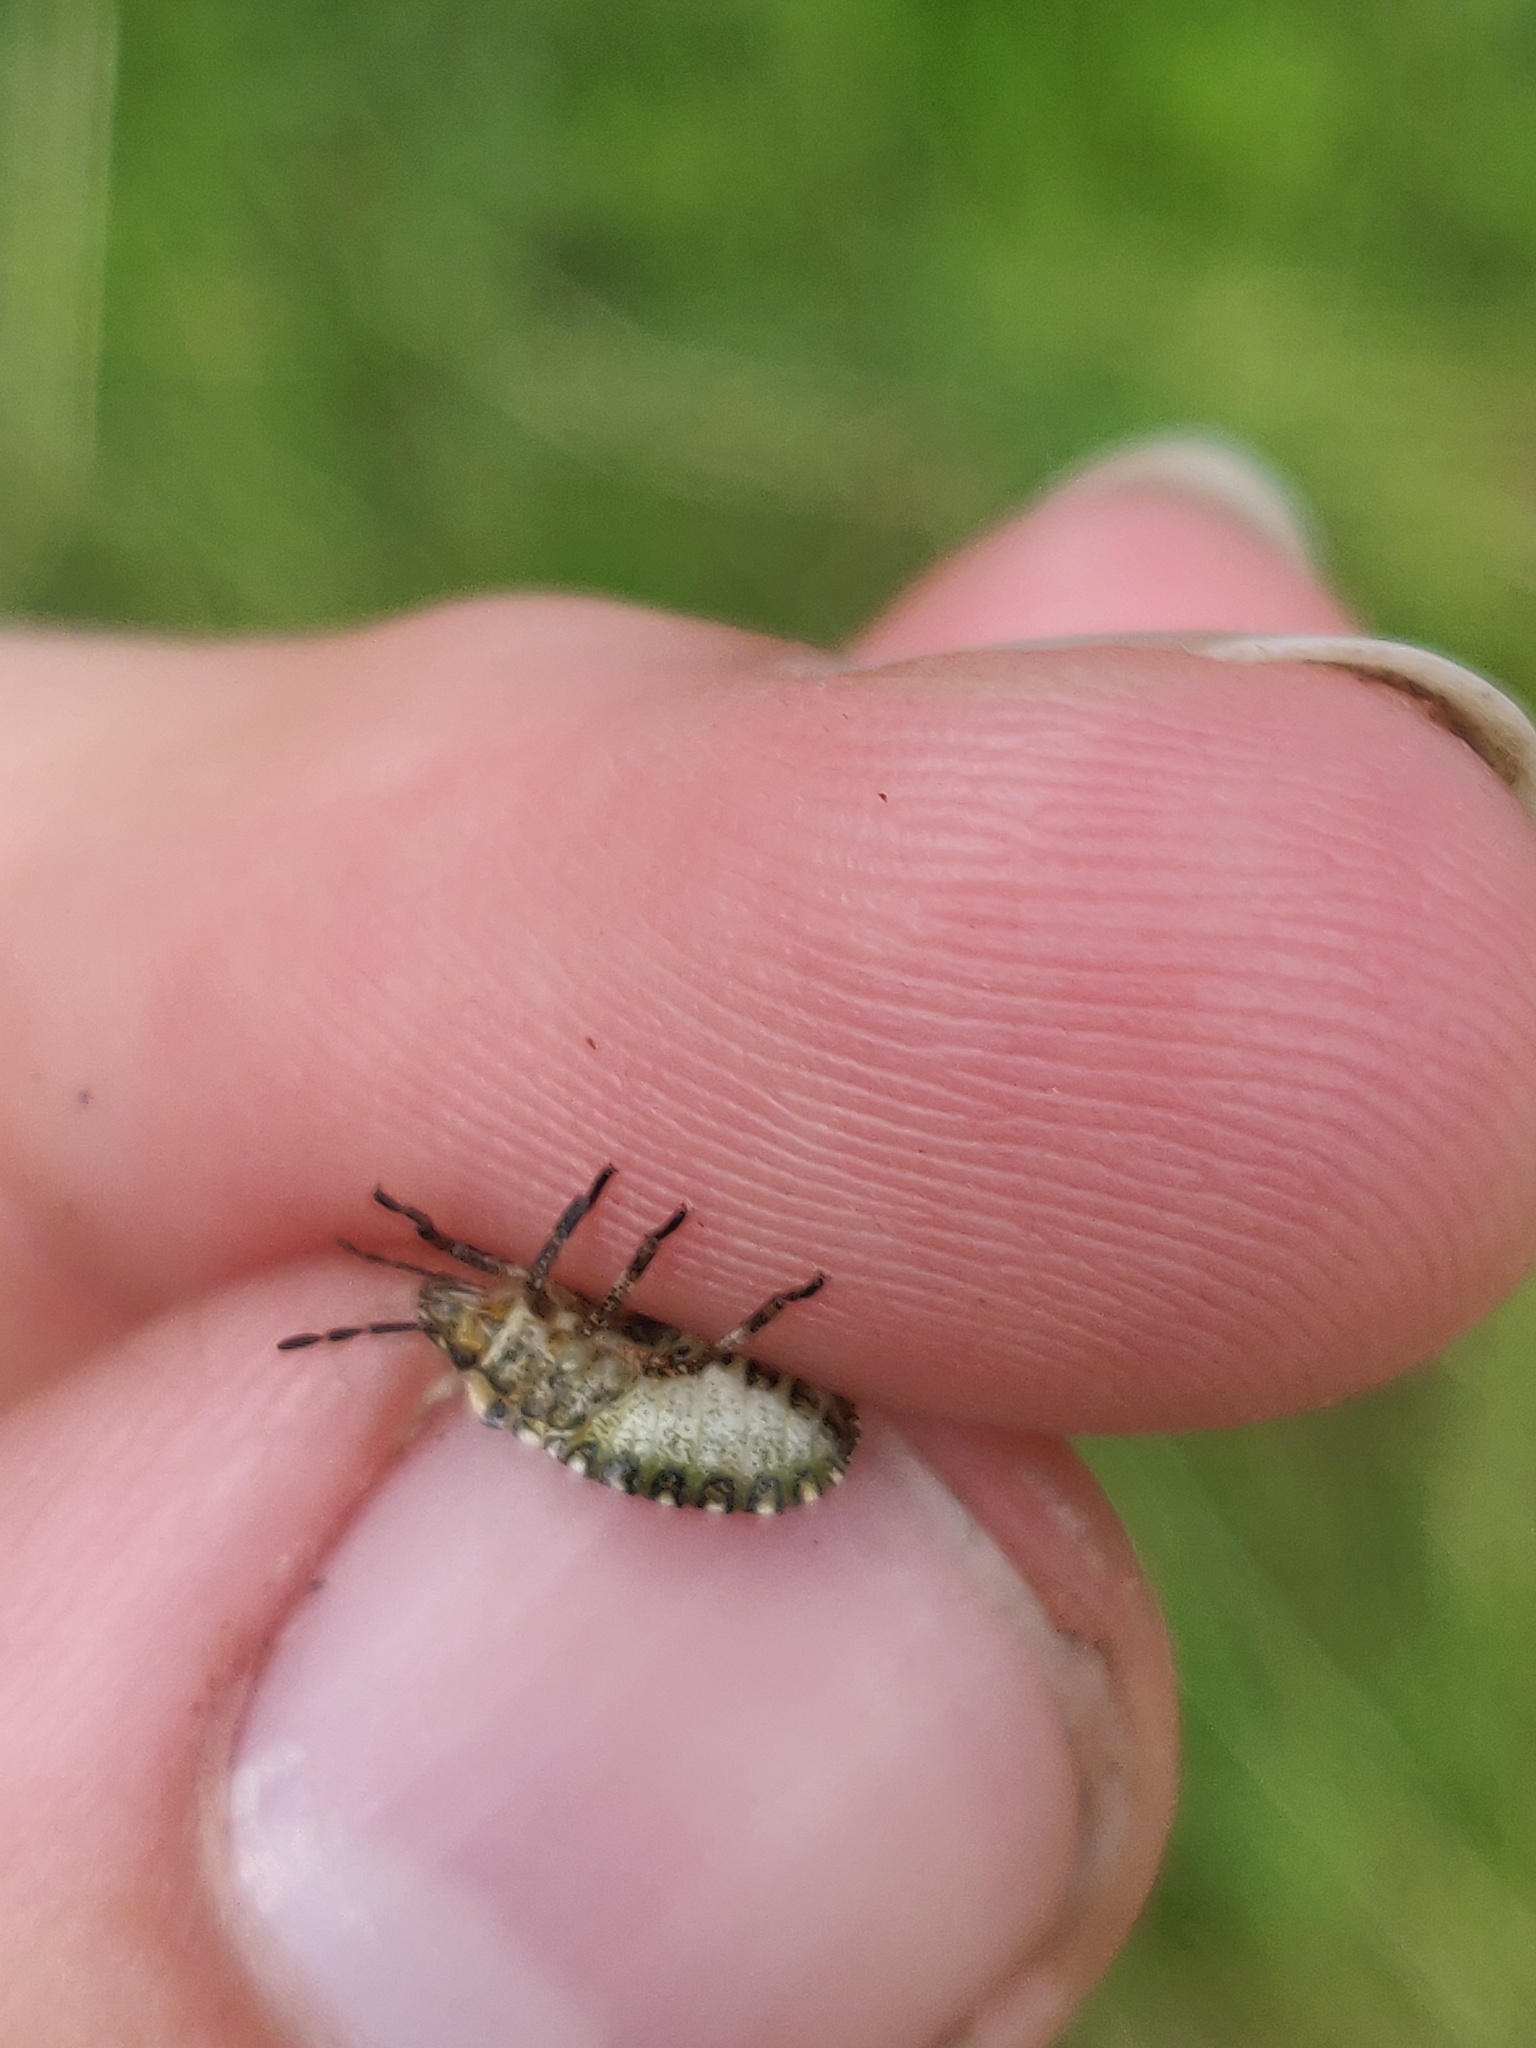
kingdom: Animalia
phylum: Arthropoda
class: Insecta
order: Hemiptera
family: Pentatomidae
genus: Pentatoma
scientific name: Pentatoma rufipes
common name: Forest bug
